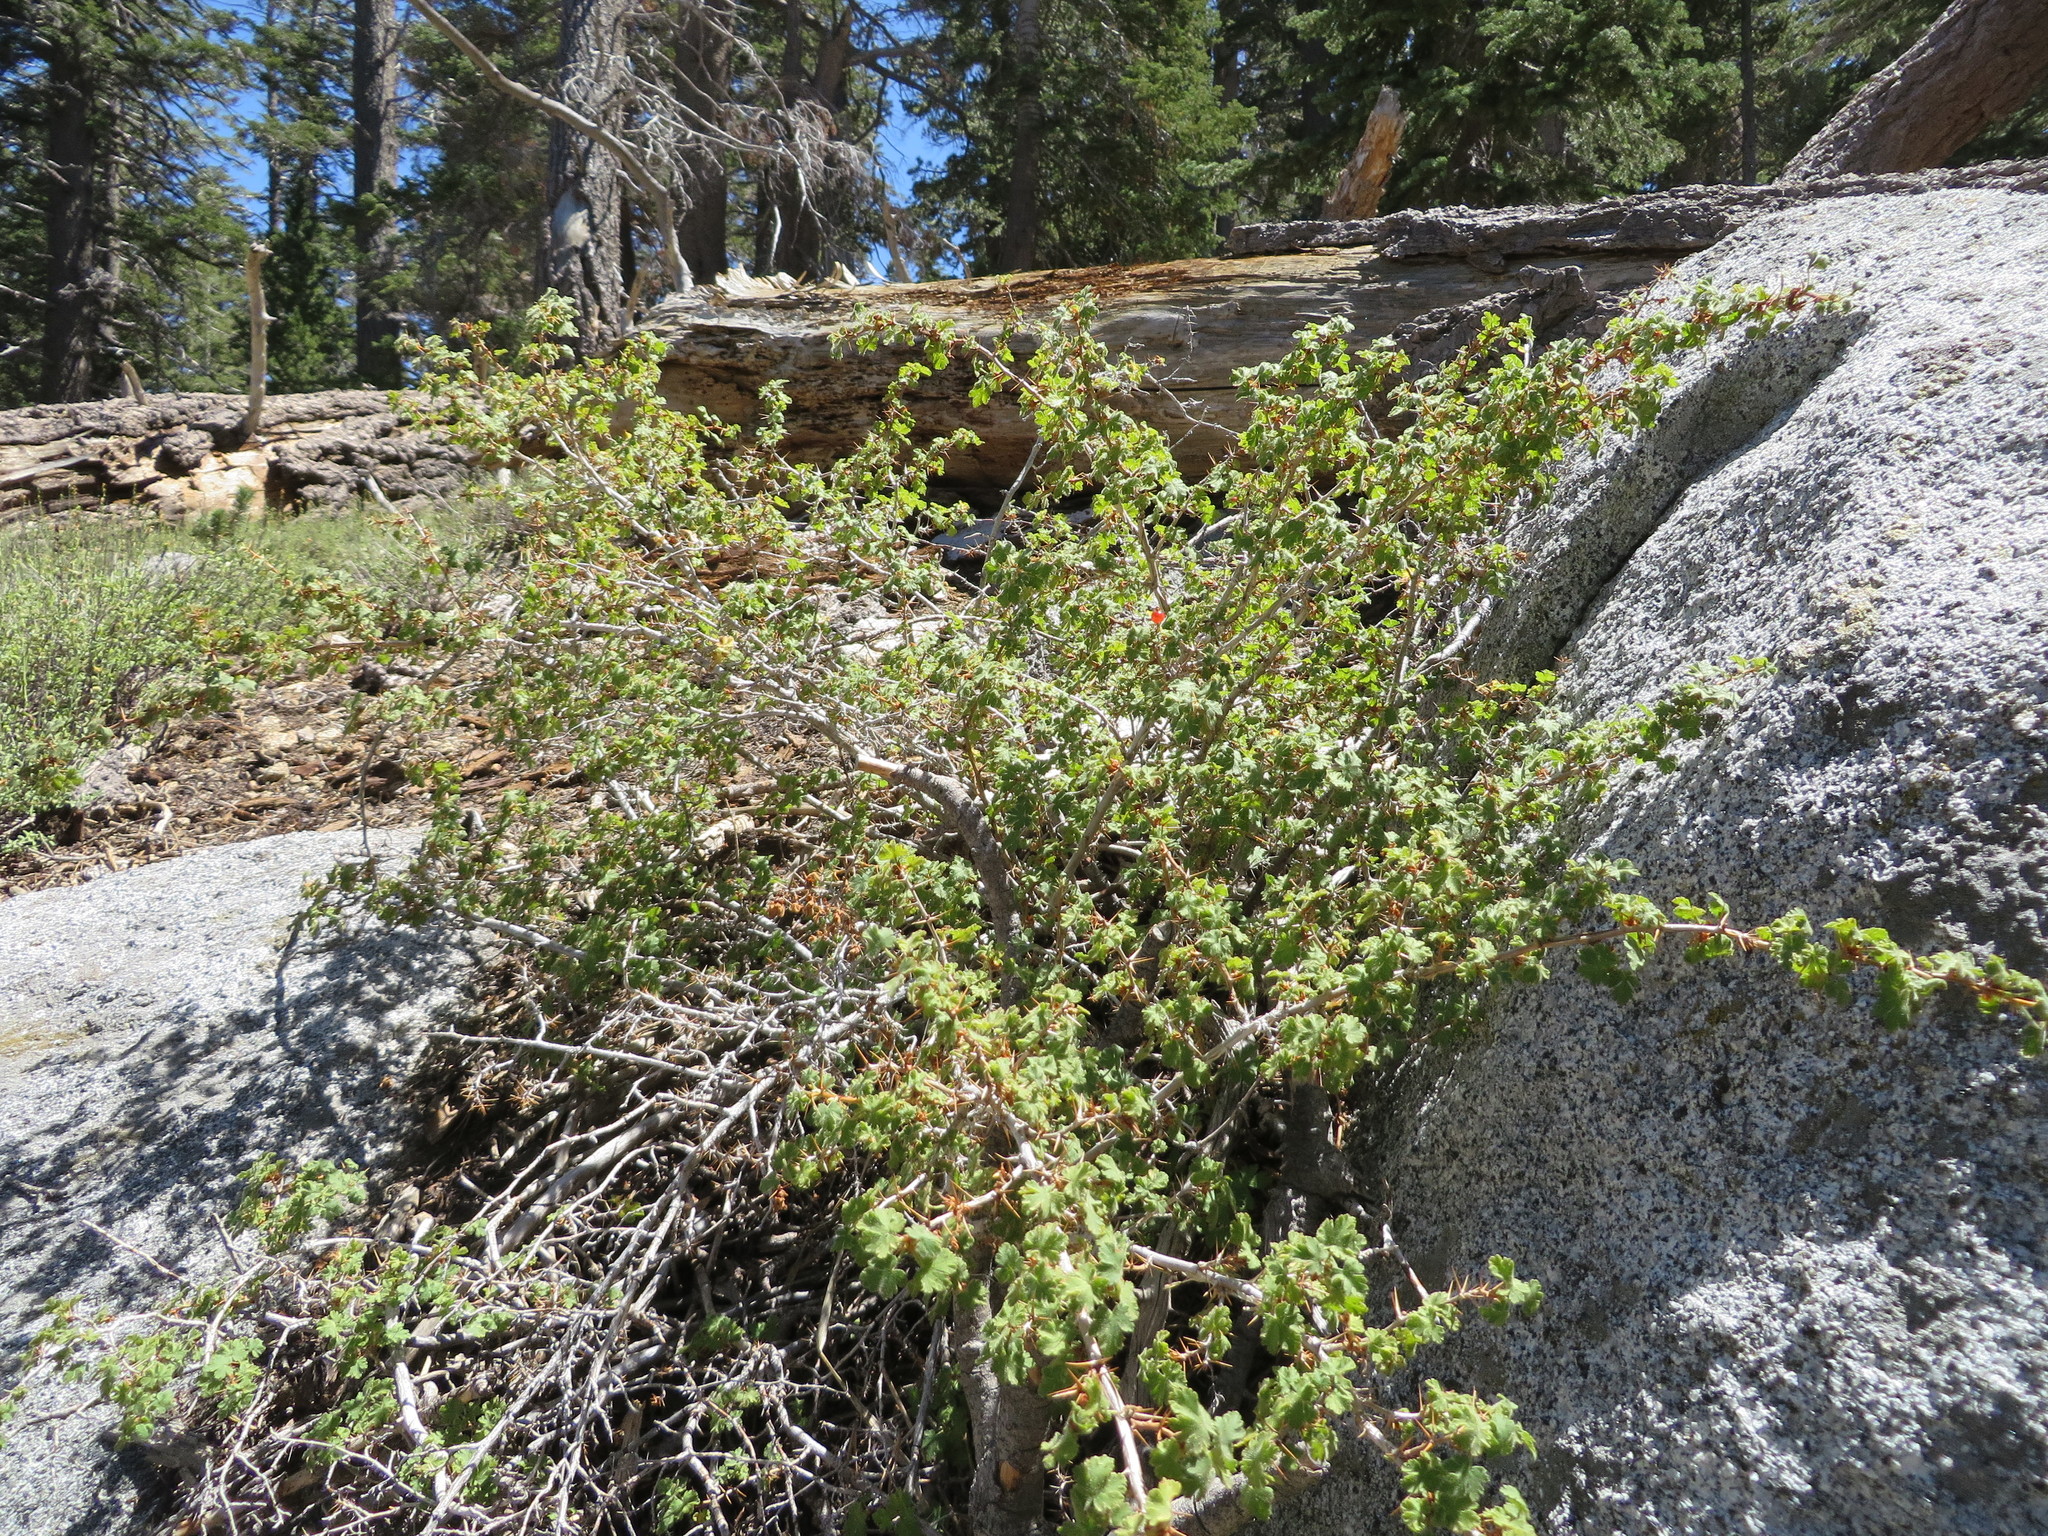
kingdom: Plantae
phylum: Tracheophyta
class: Magnoliopsida
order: Saxifragales
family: Grossulariaceae
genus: Ribes
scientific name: Ribes montigenum
